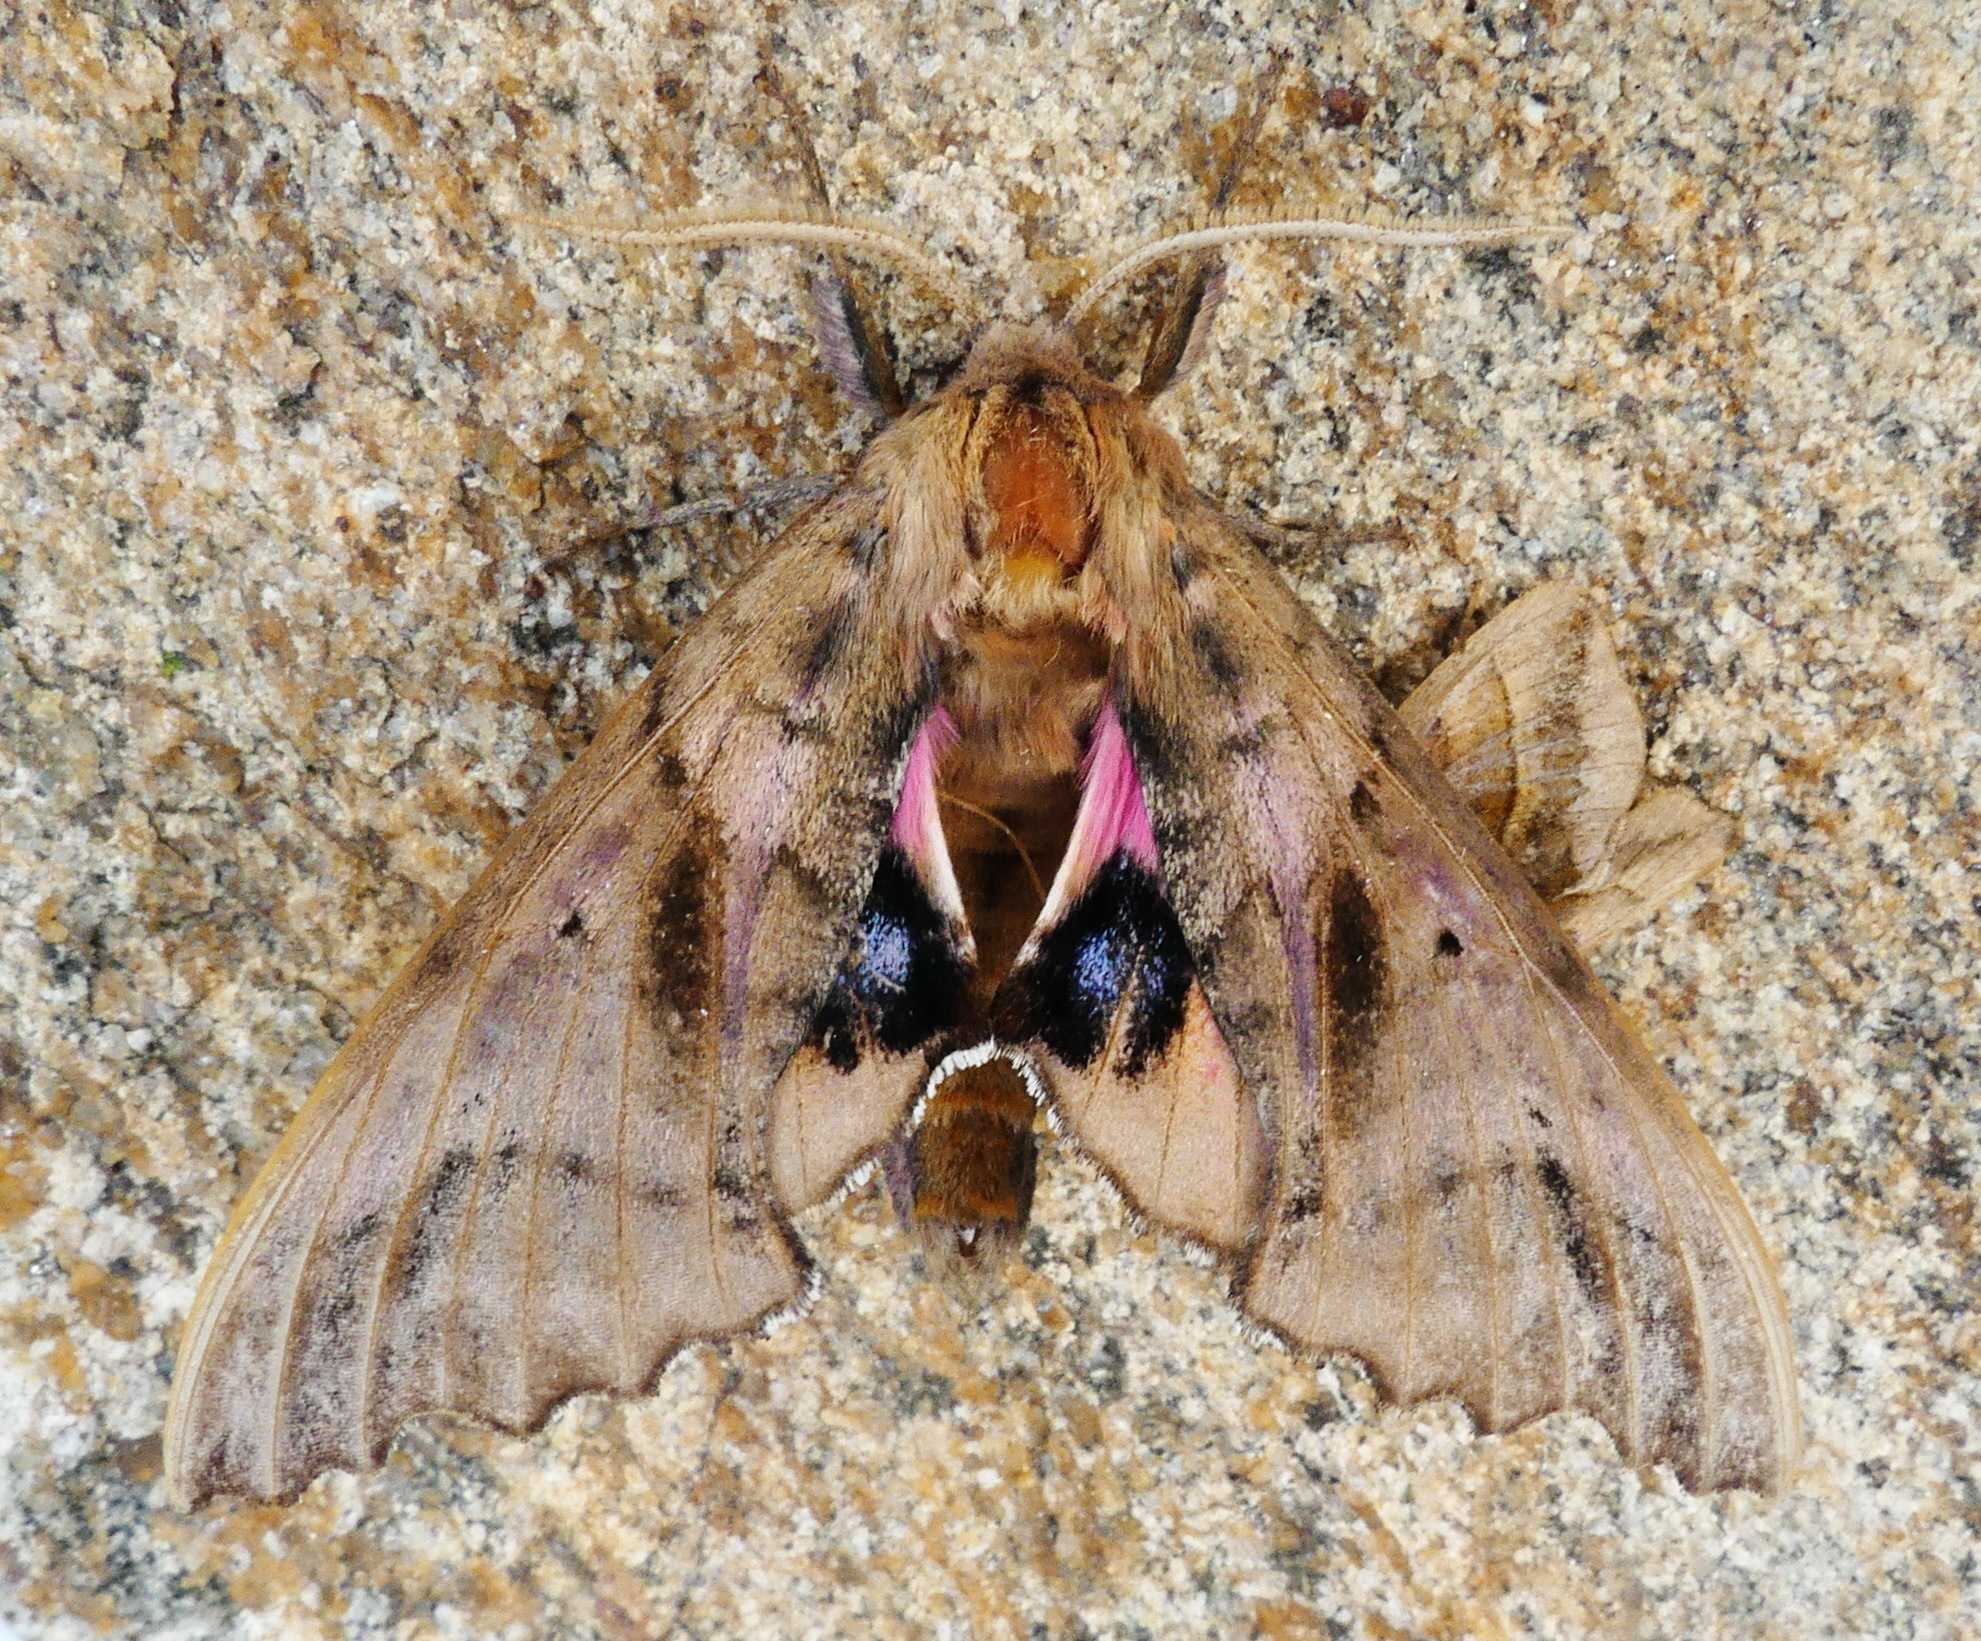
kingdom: Animalia
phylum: Arthropoda
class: Insecta
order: Lepidoptera
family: Sphingidae
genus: Paonias
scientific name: Paonias excaecata
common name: Blind-eyed sphinx
